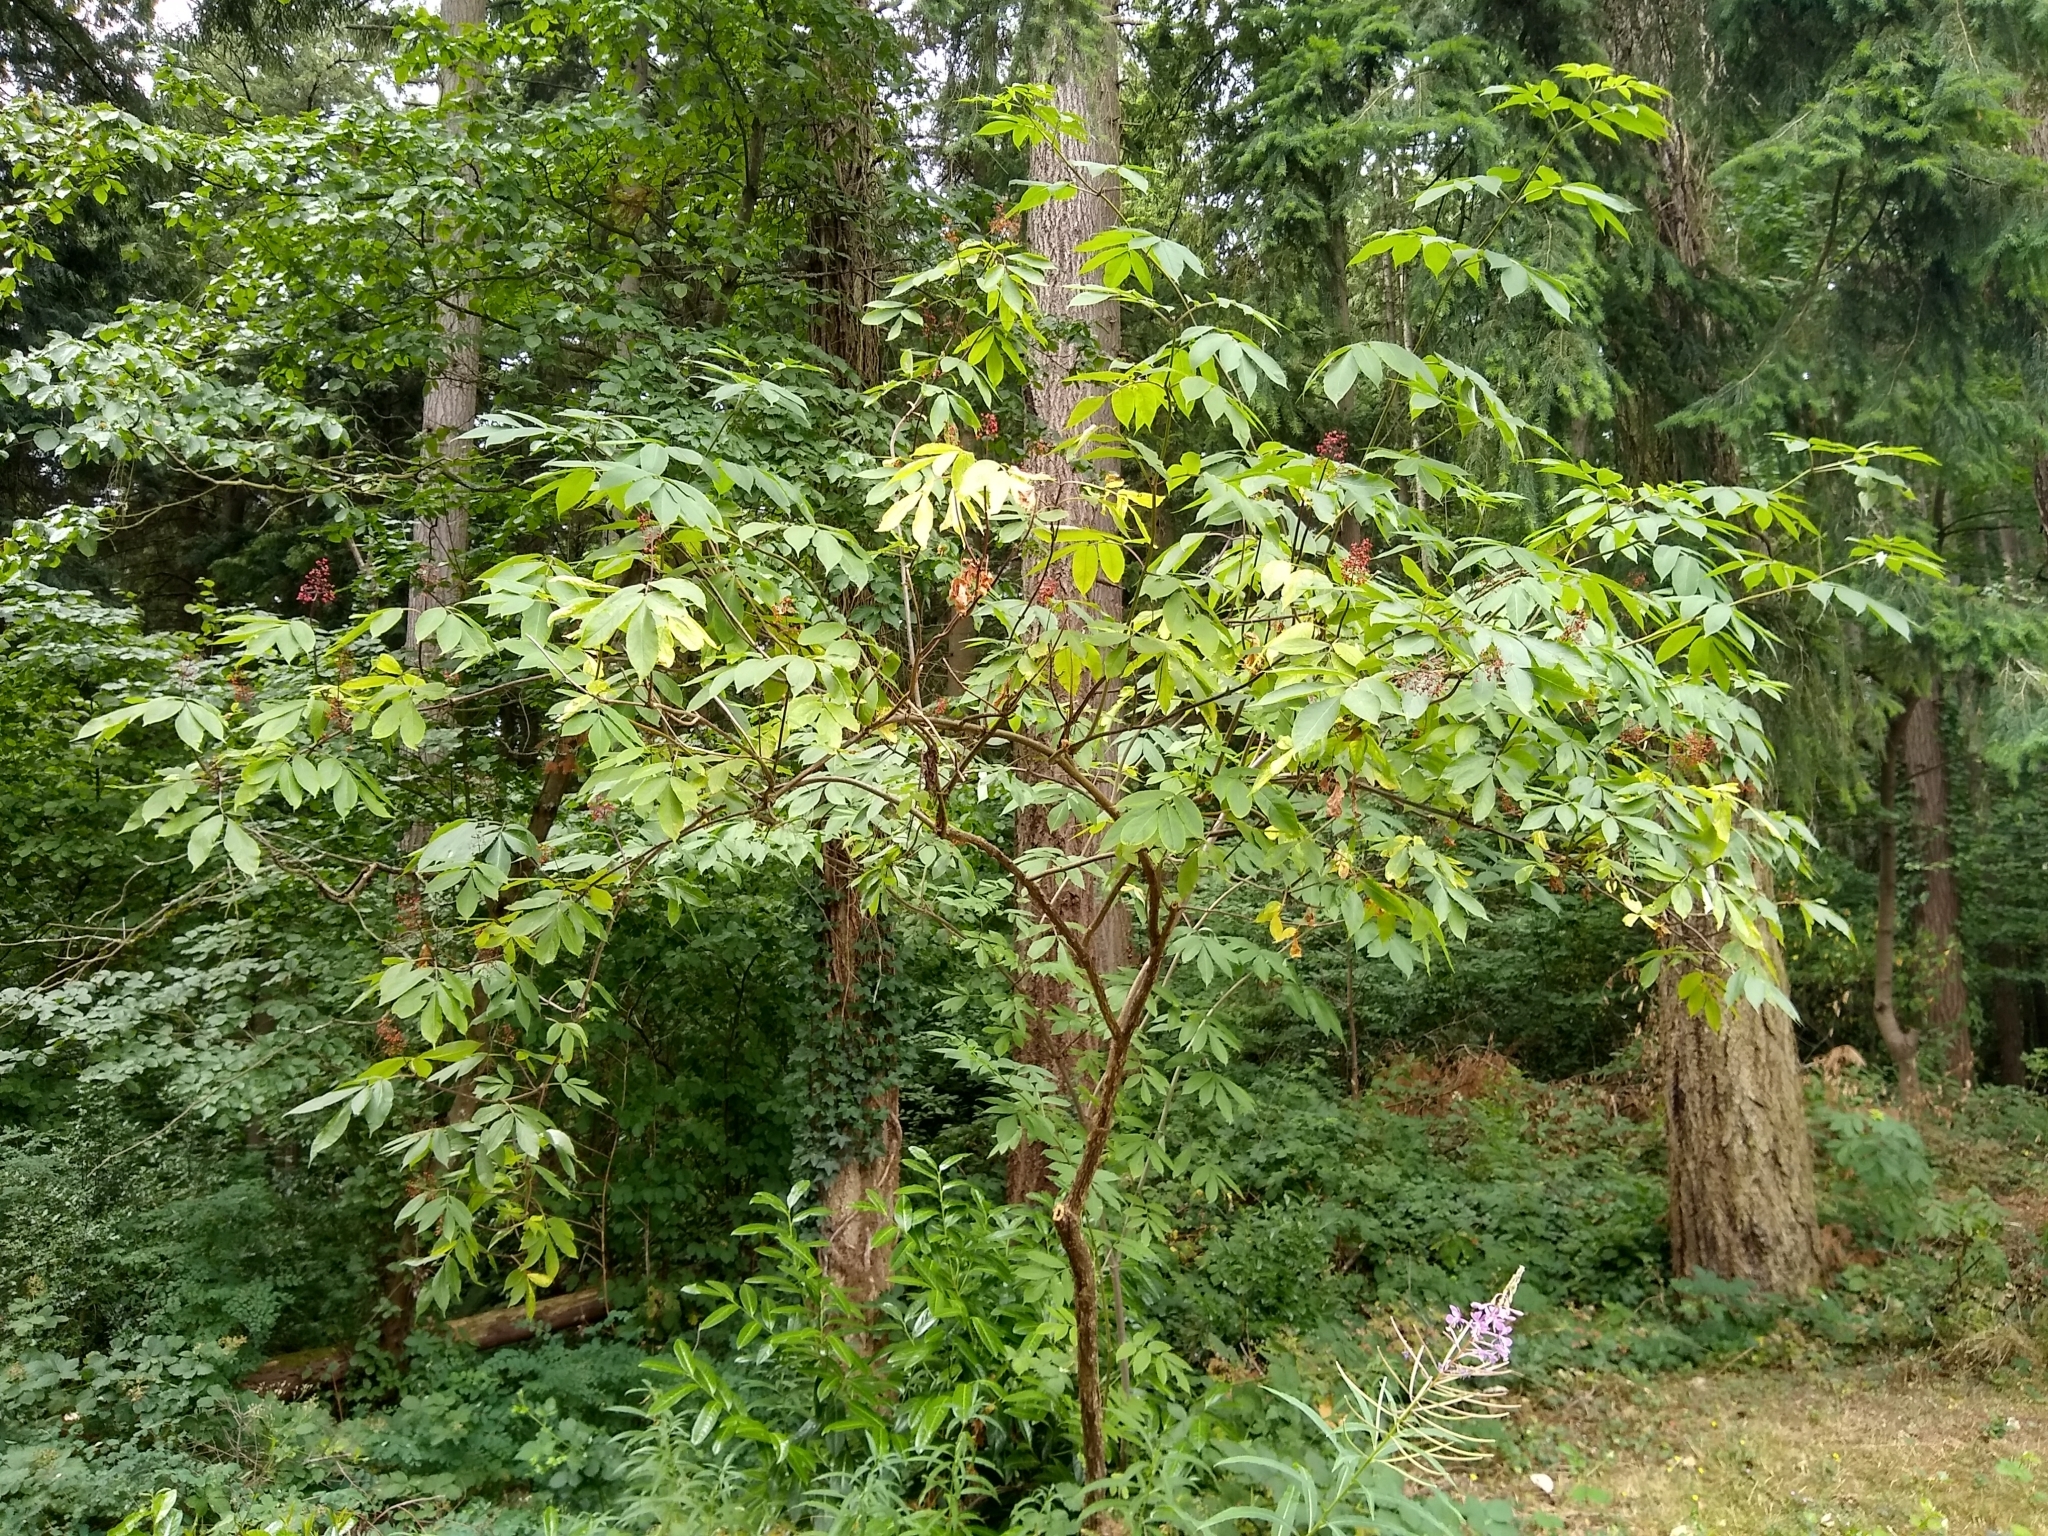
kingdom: Plantae
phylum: Tracheophyta
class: Magnoliopsida
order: Dipsacales
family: Viburnaceae
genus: Sambucus
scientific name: Sambucus racemosa
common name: Red-berried elder
